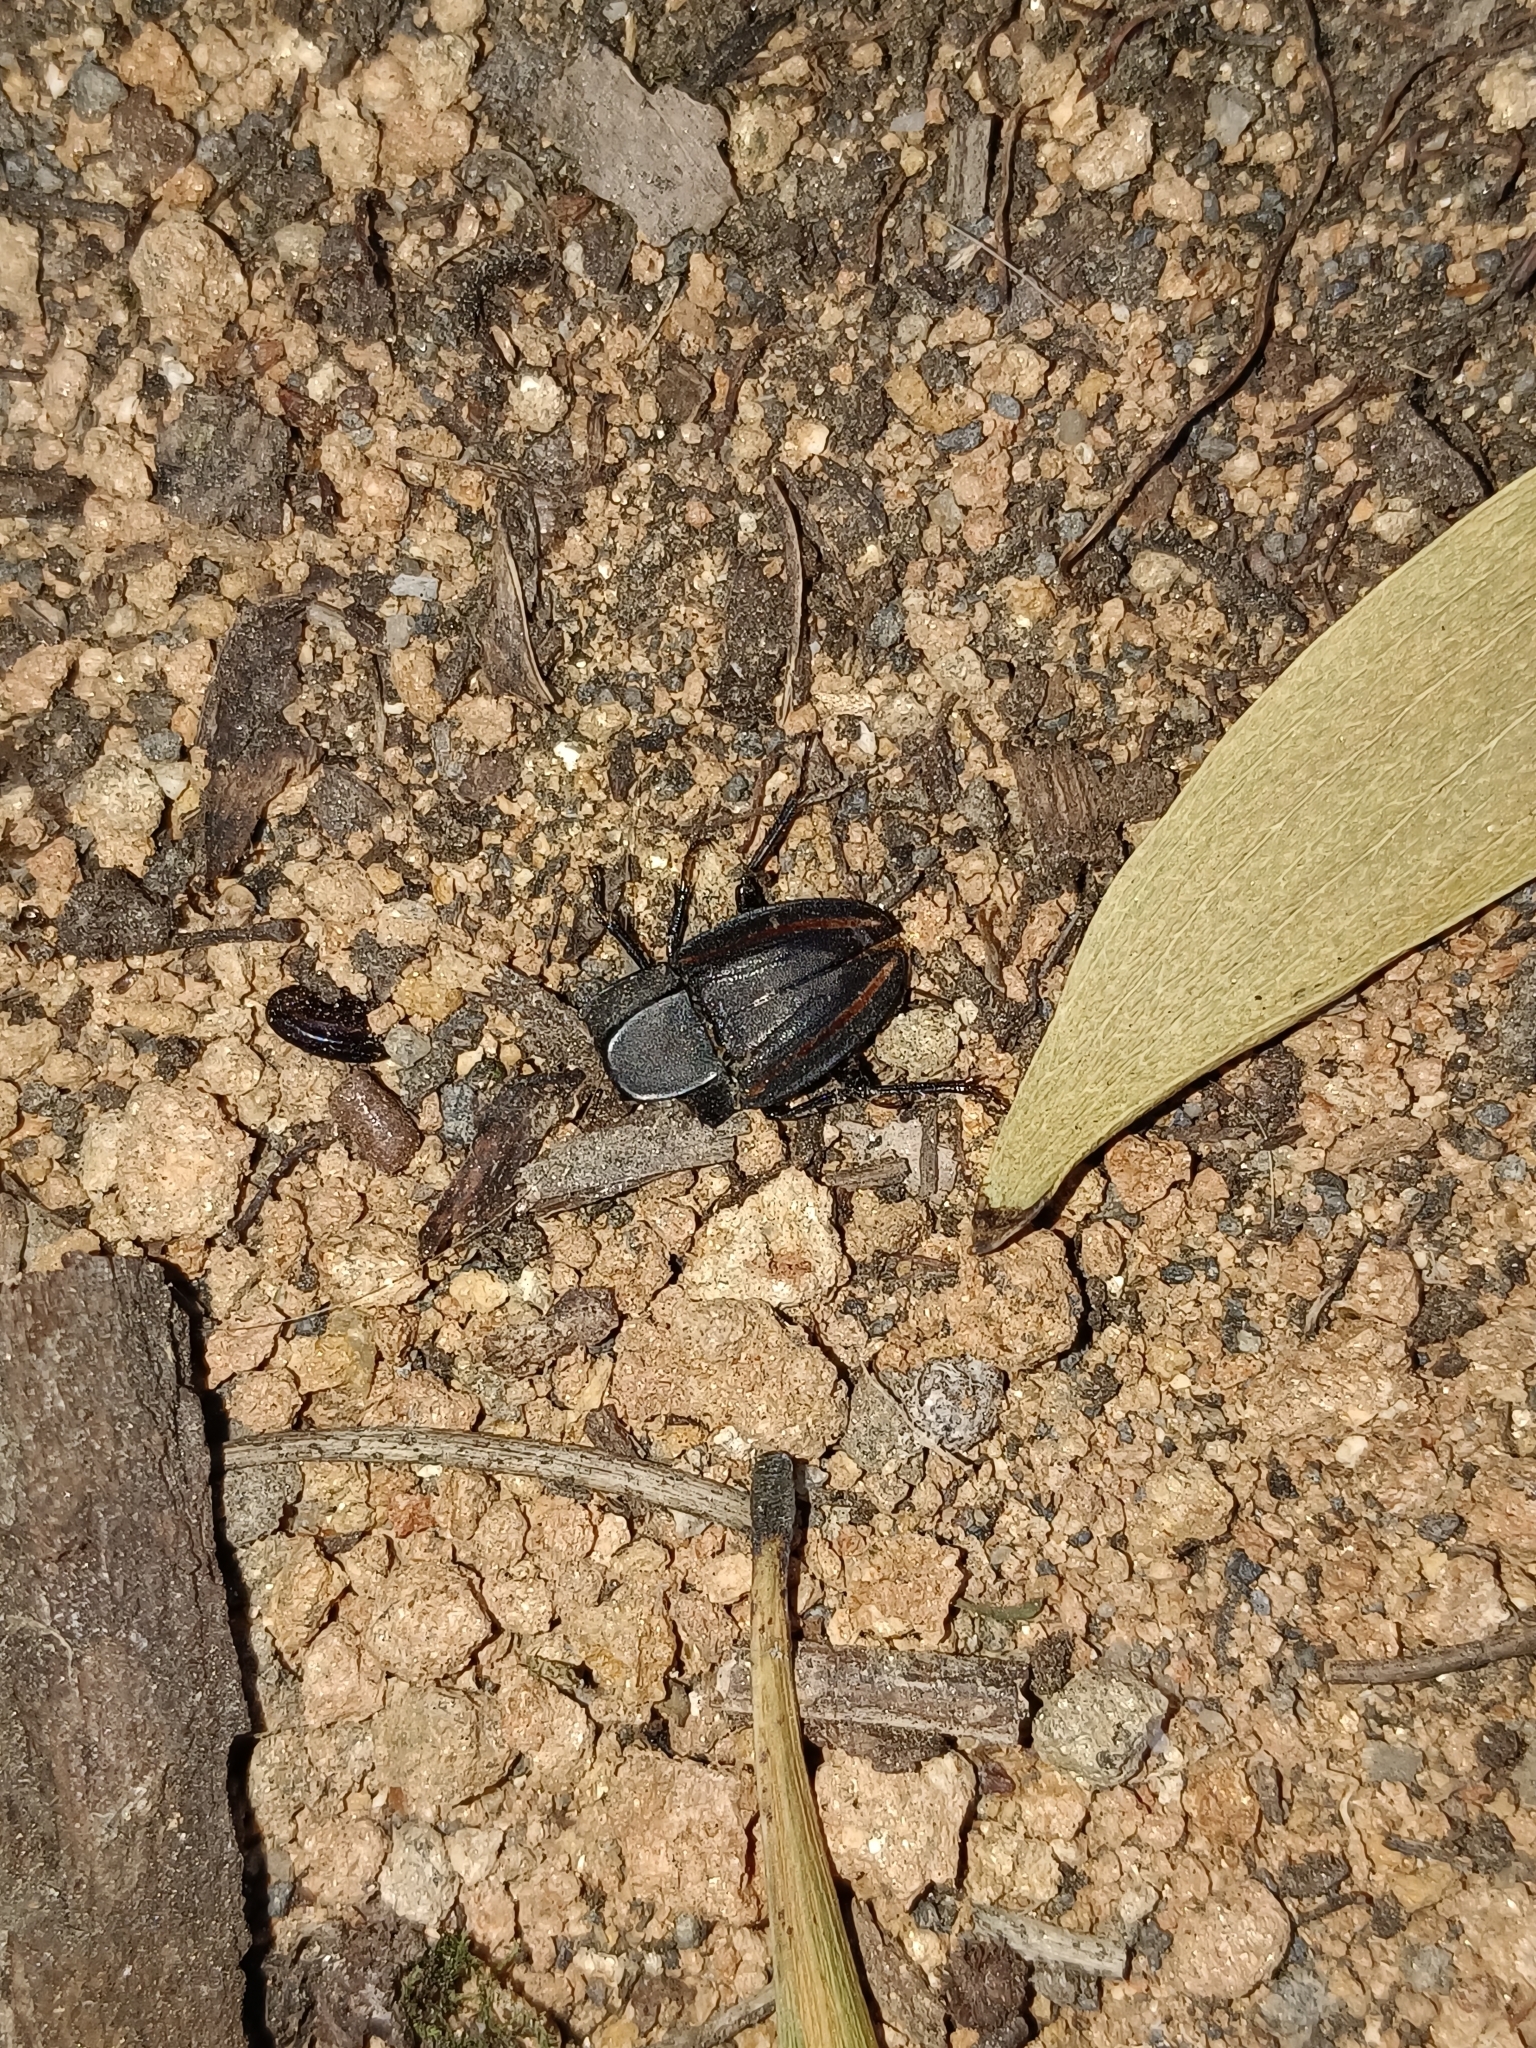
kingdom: Animalia
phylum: Arthropoda
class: Insecta
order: Coleoptera
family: Lucanidae
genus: Erichius
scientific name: Erichius vittatus
